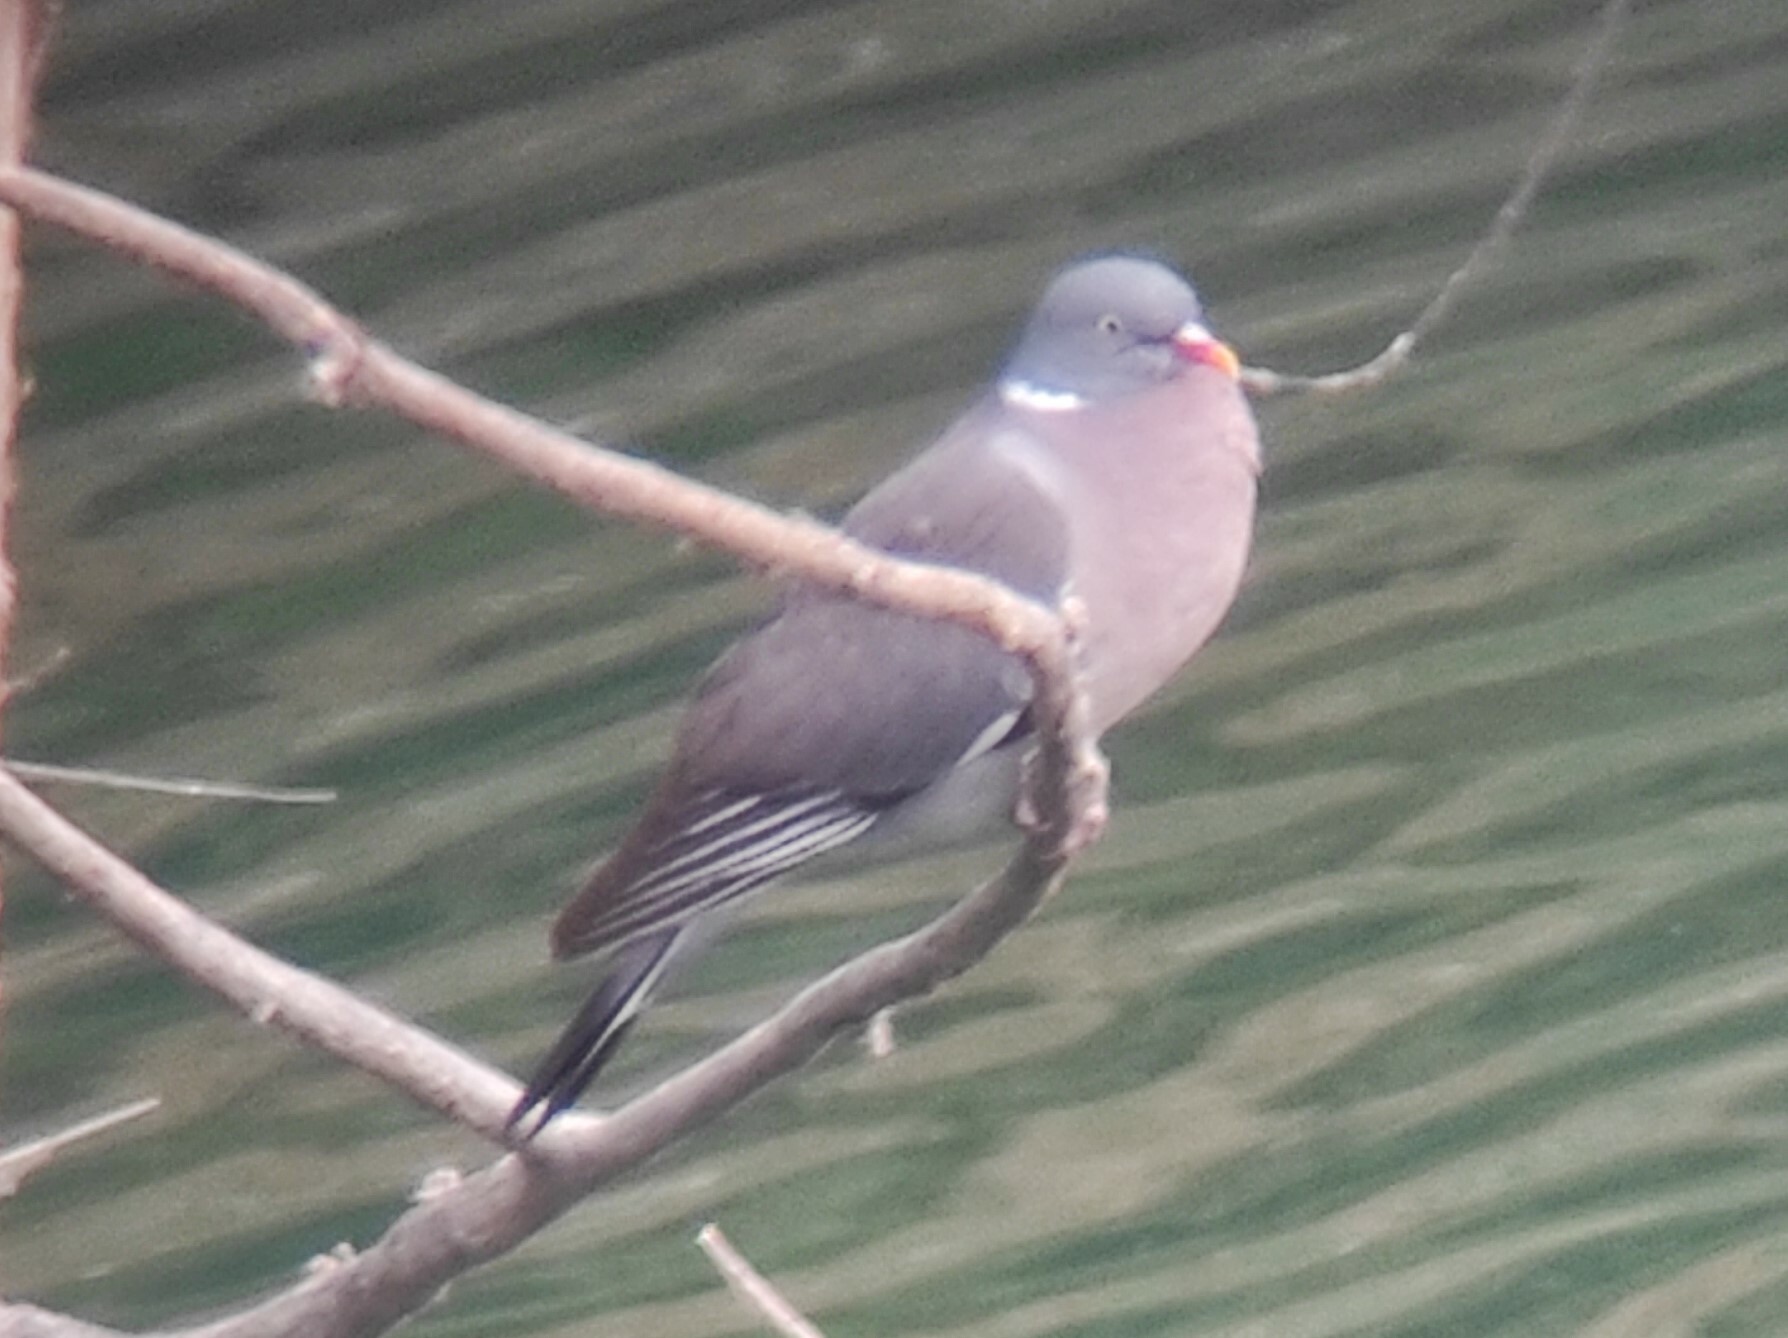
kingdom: Animalia
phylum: Chordata
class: Aves
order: Columbiformes
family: Columbidae
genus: Columba
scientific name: Columba palumbus
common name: Common wood pigeon
